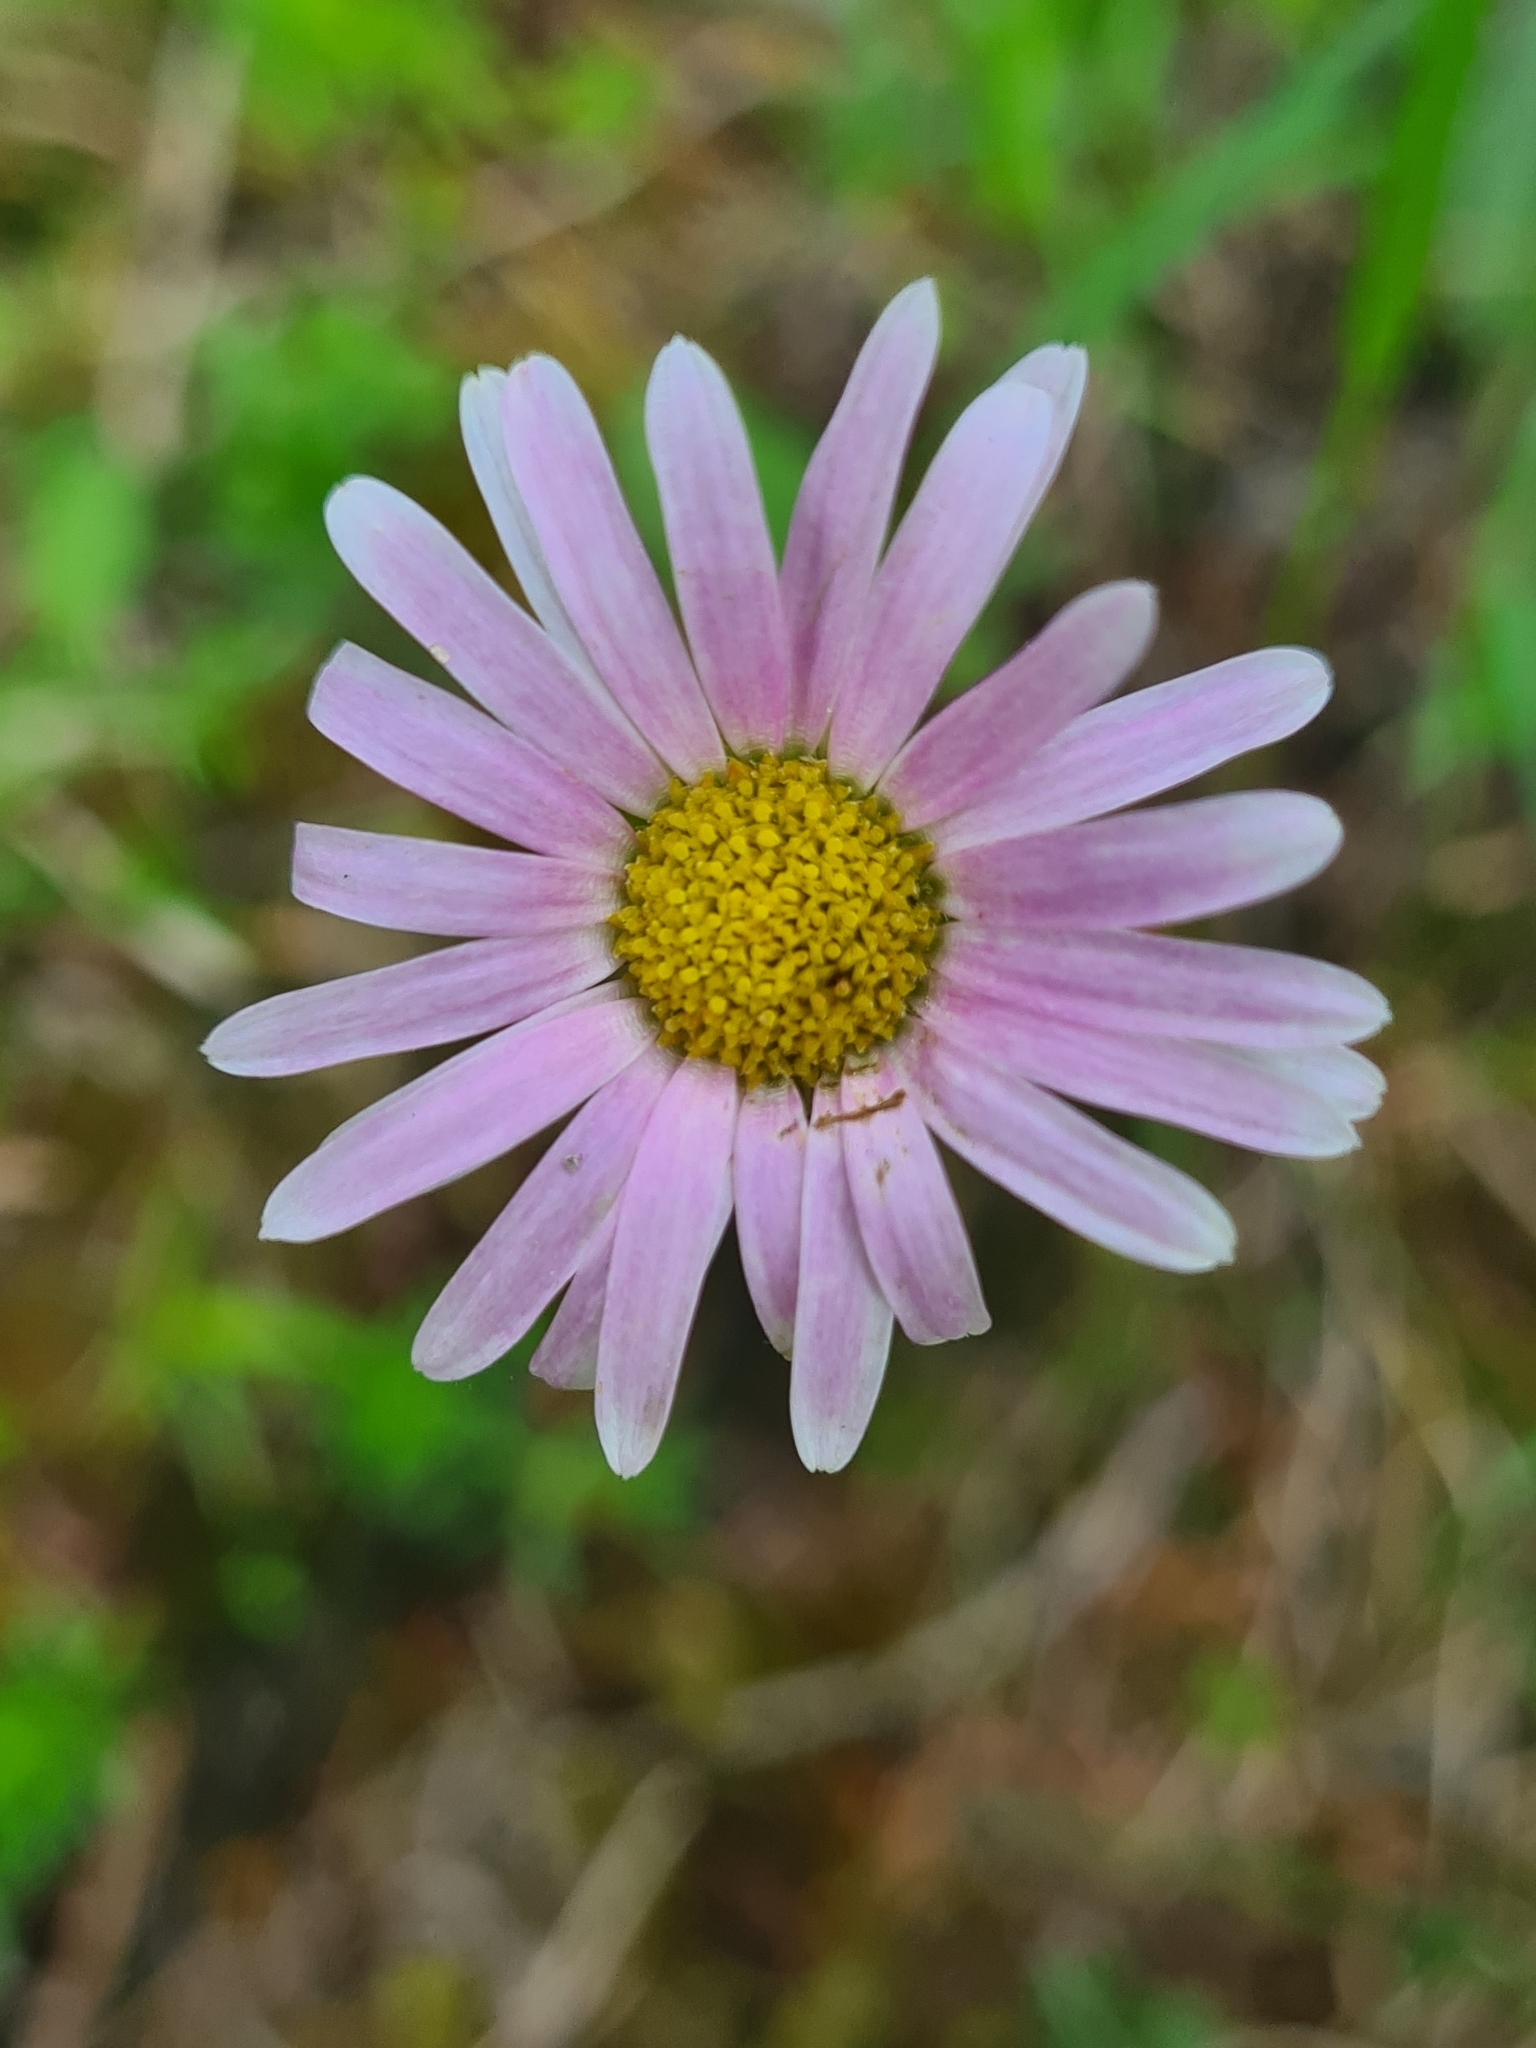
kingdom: Plantae
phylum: Tracheophyta
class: Magnoliopsida
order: Asterales
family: Asteraceae
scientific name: Asteraceae
